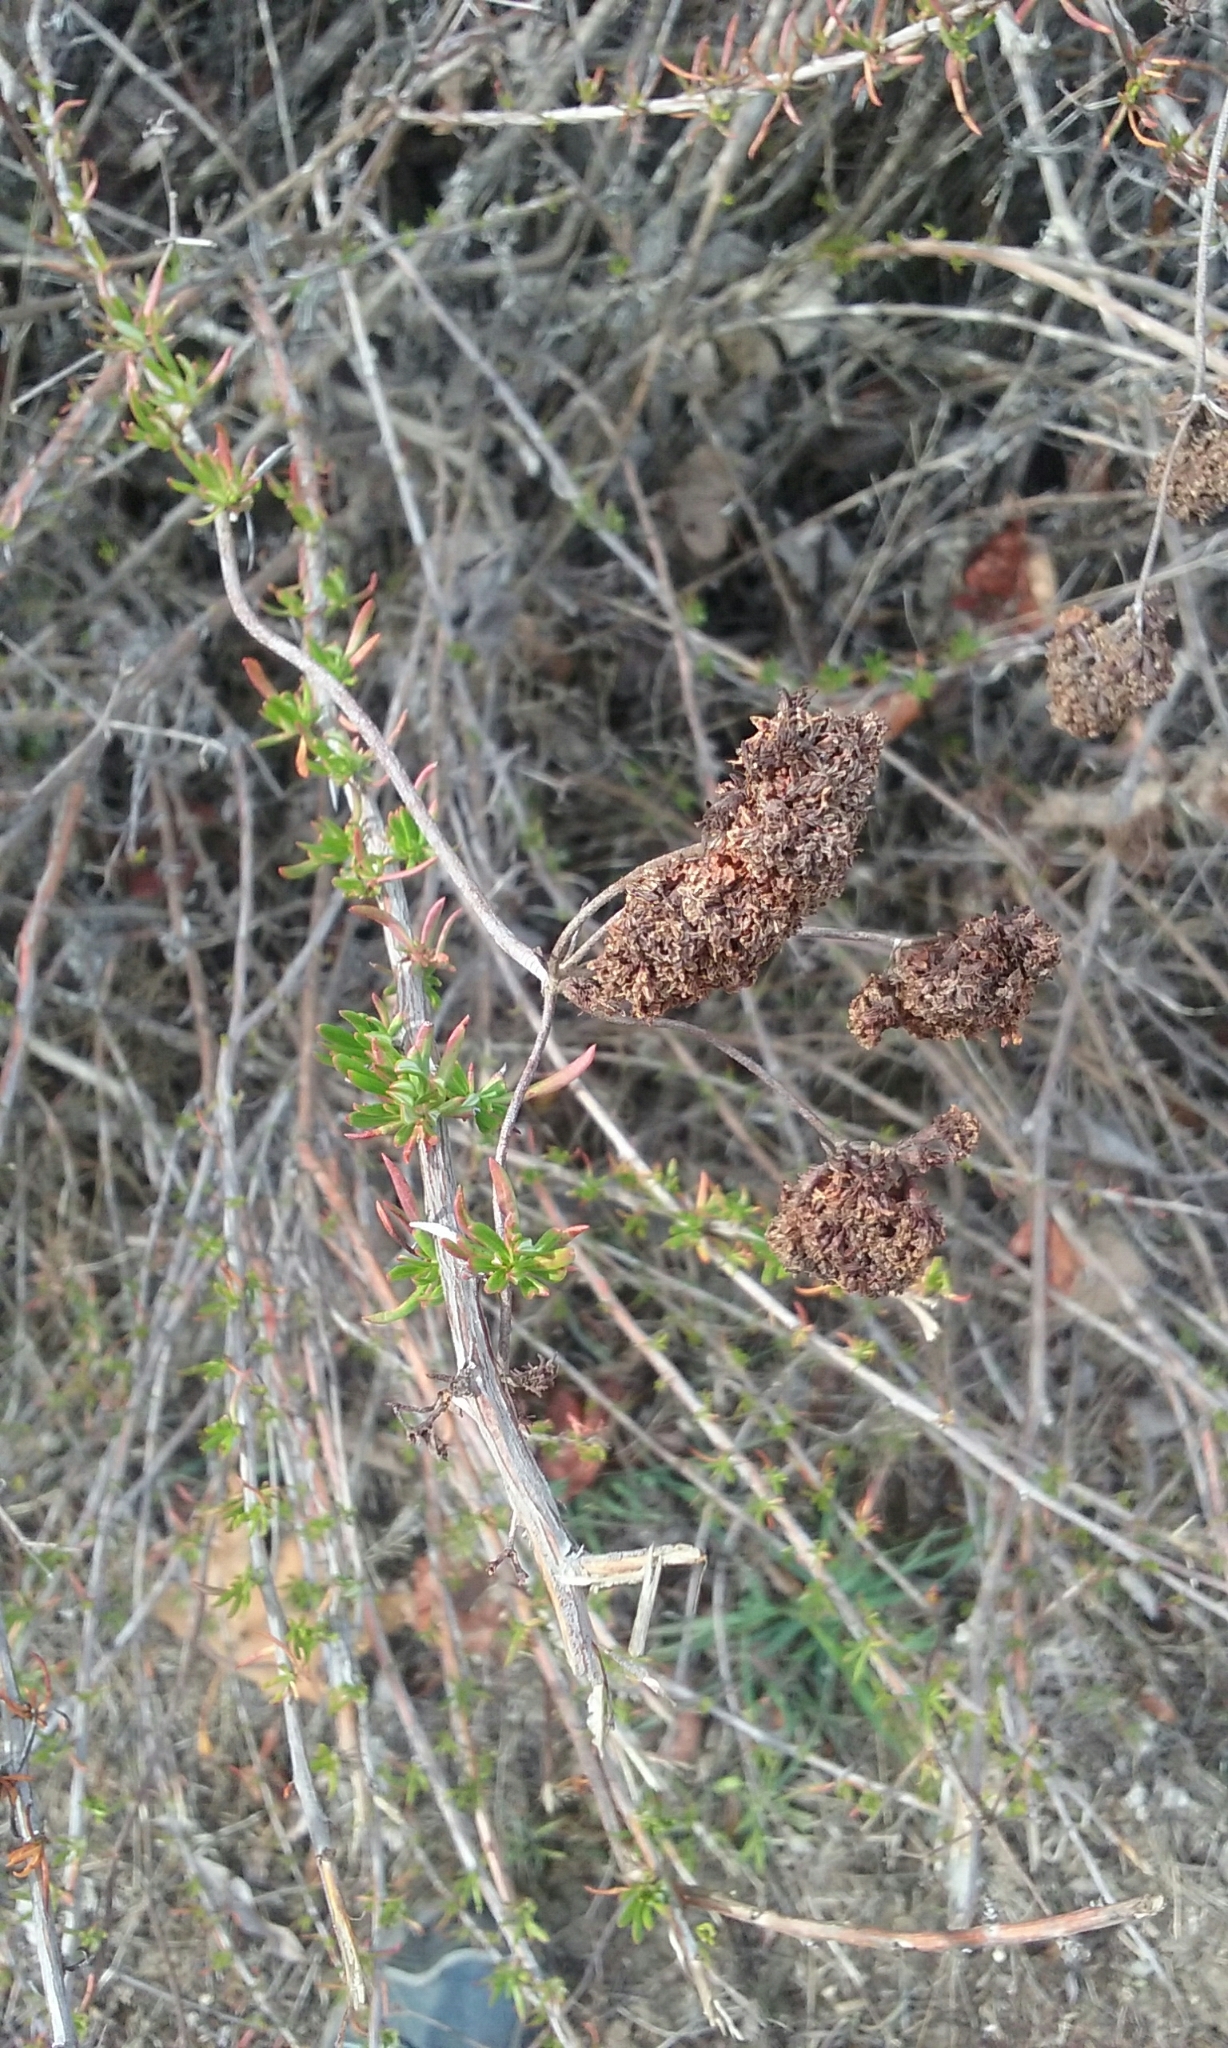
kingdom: Plantae
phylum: Tracheophyta
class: Magnoliopsida
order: Caryophyllales
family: Polygonaceae
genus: Eriogonum
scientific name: Eriogonum fasciculatum
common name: California wild buckwheat
